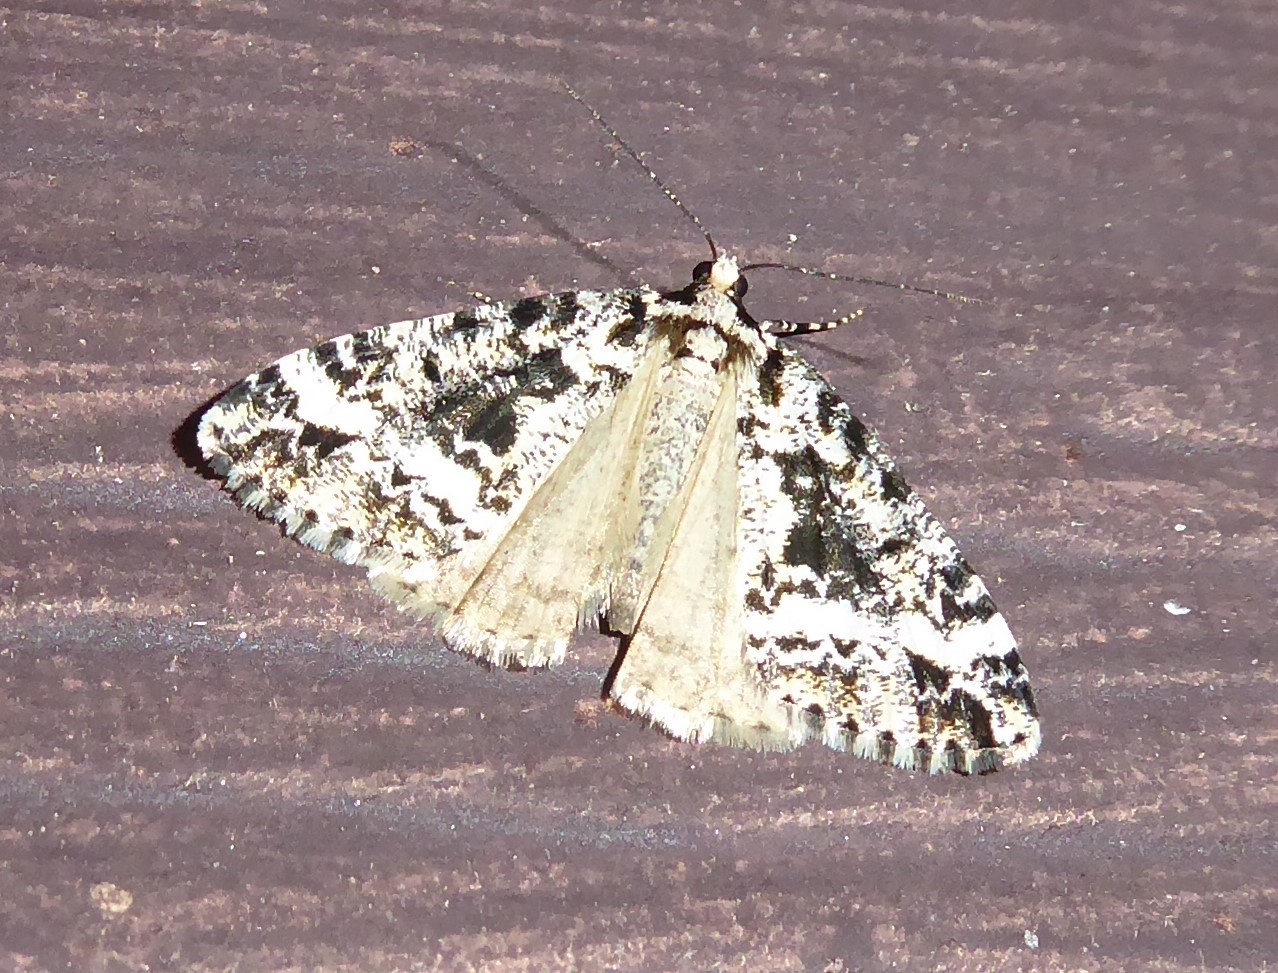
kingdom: Animalia
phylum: Arthropoda
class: Insecta
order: Lepidoptera
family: Geometridae
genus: Pseudocoremia
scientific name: Pseudocoremia leucelaea
